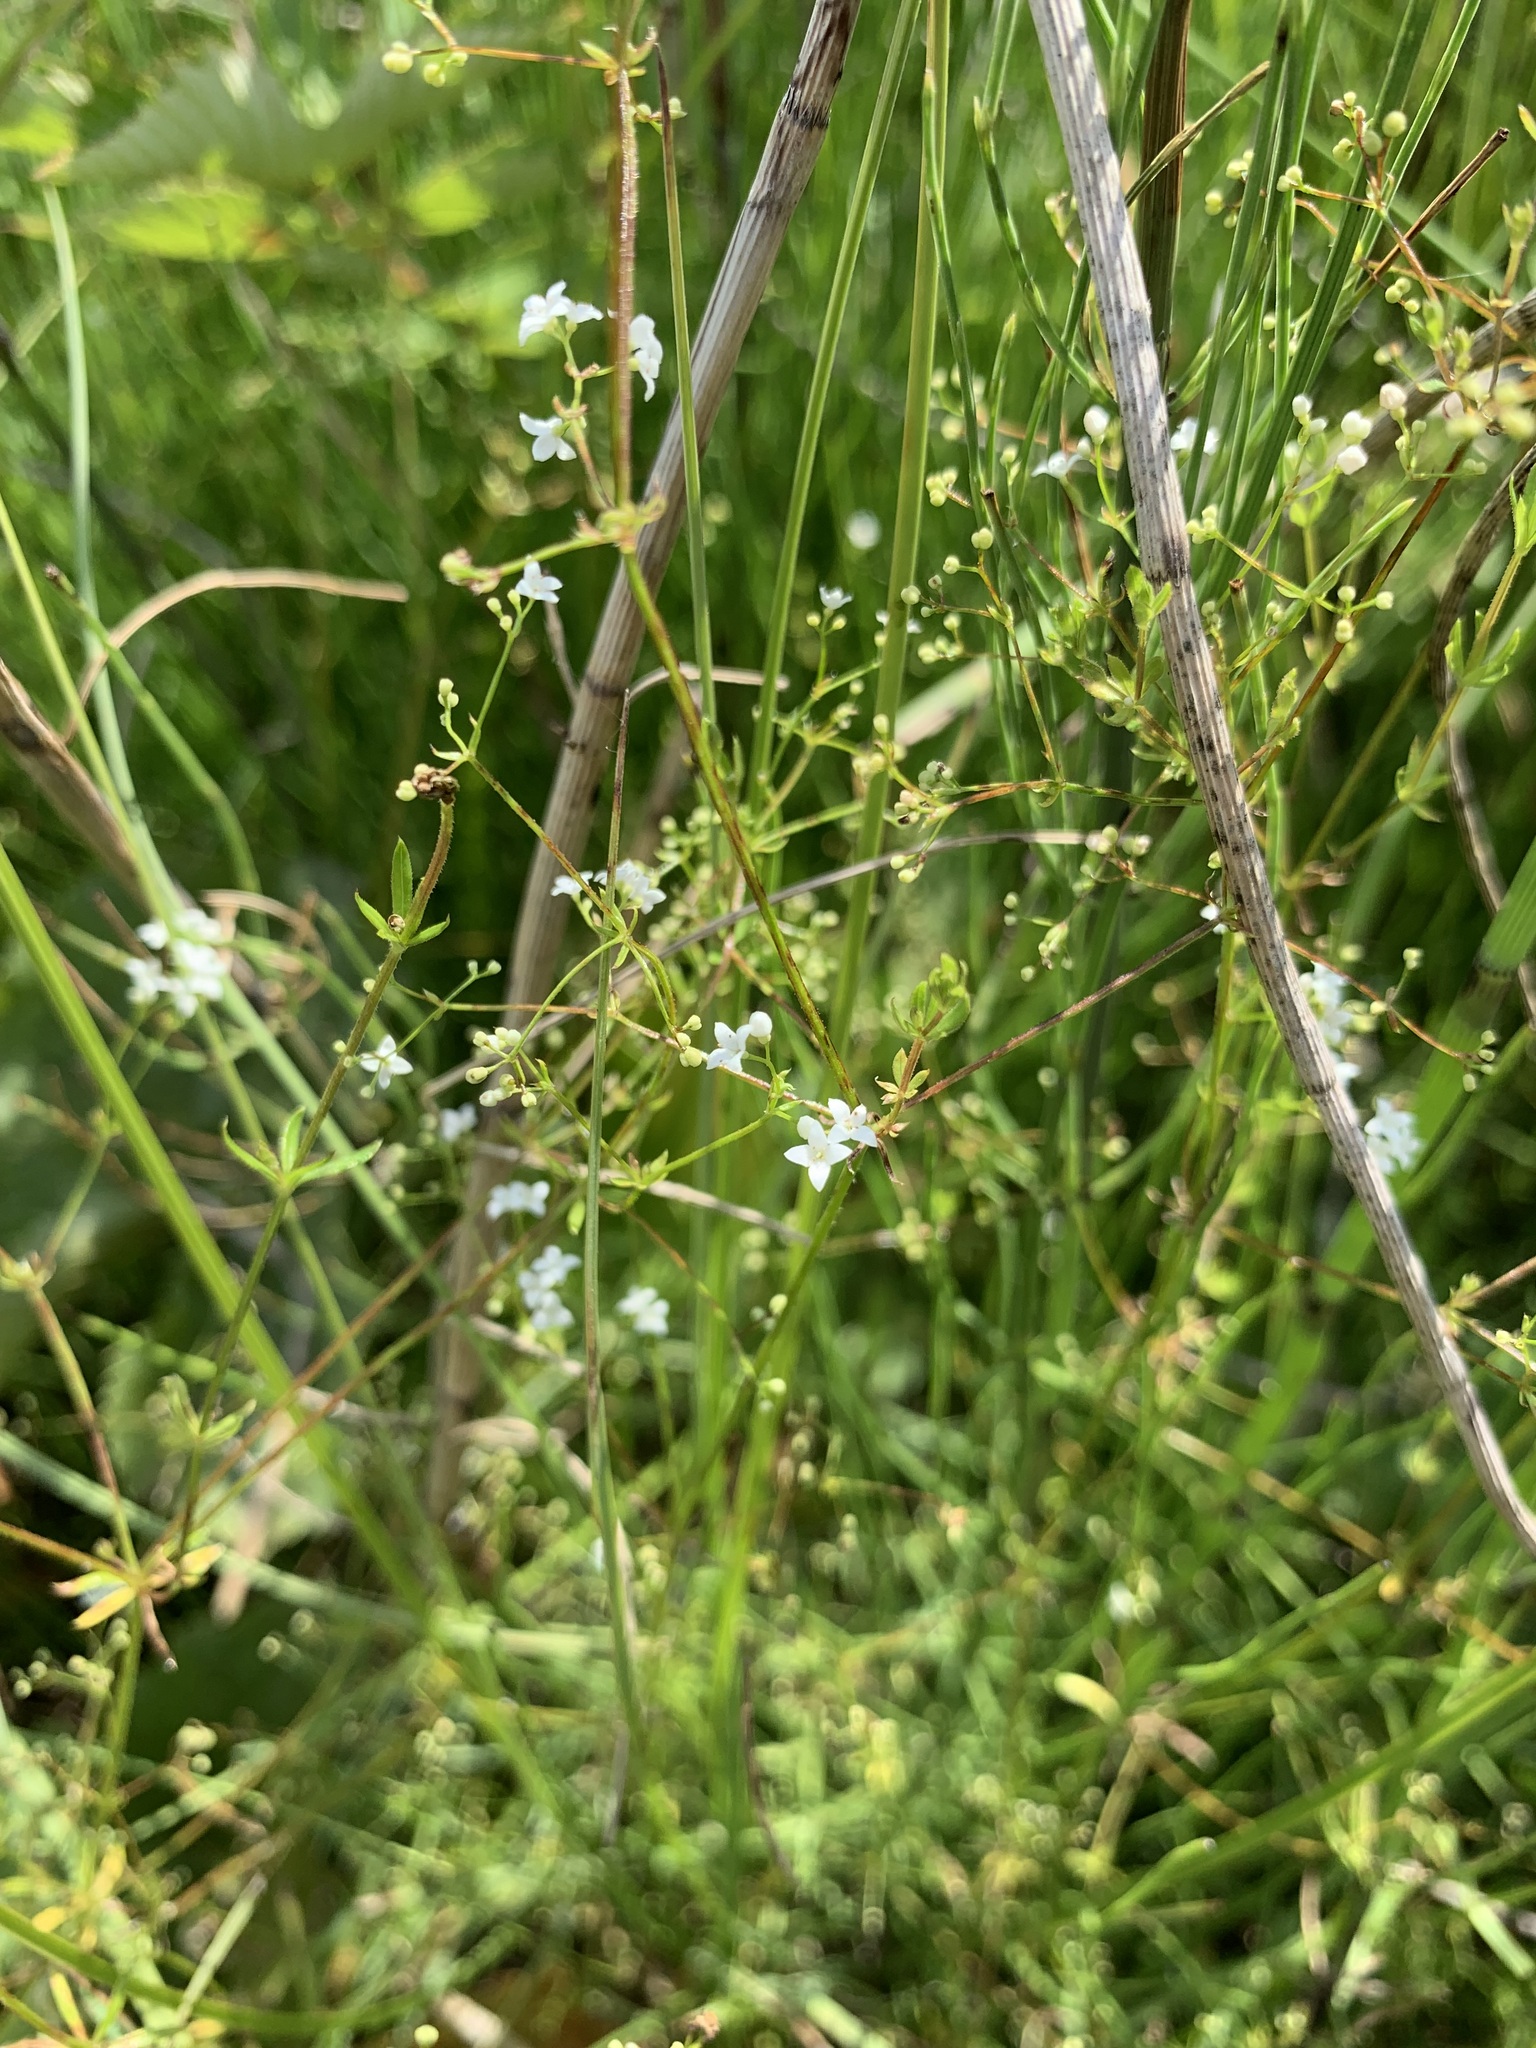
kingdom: Plantae
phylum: Tracheophyta
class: Magnoliopsida
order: Gentianales
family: Rubiaceae
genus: Galium
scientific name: Galium uliginosum
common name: Fen bedstraw
